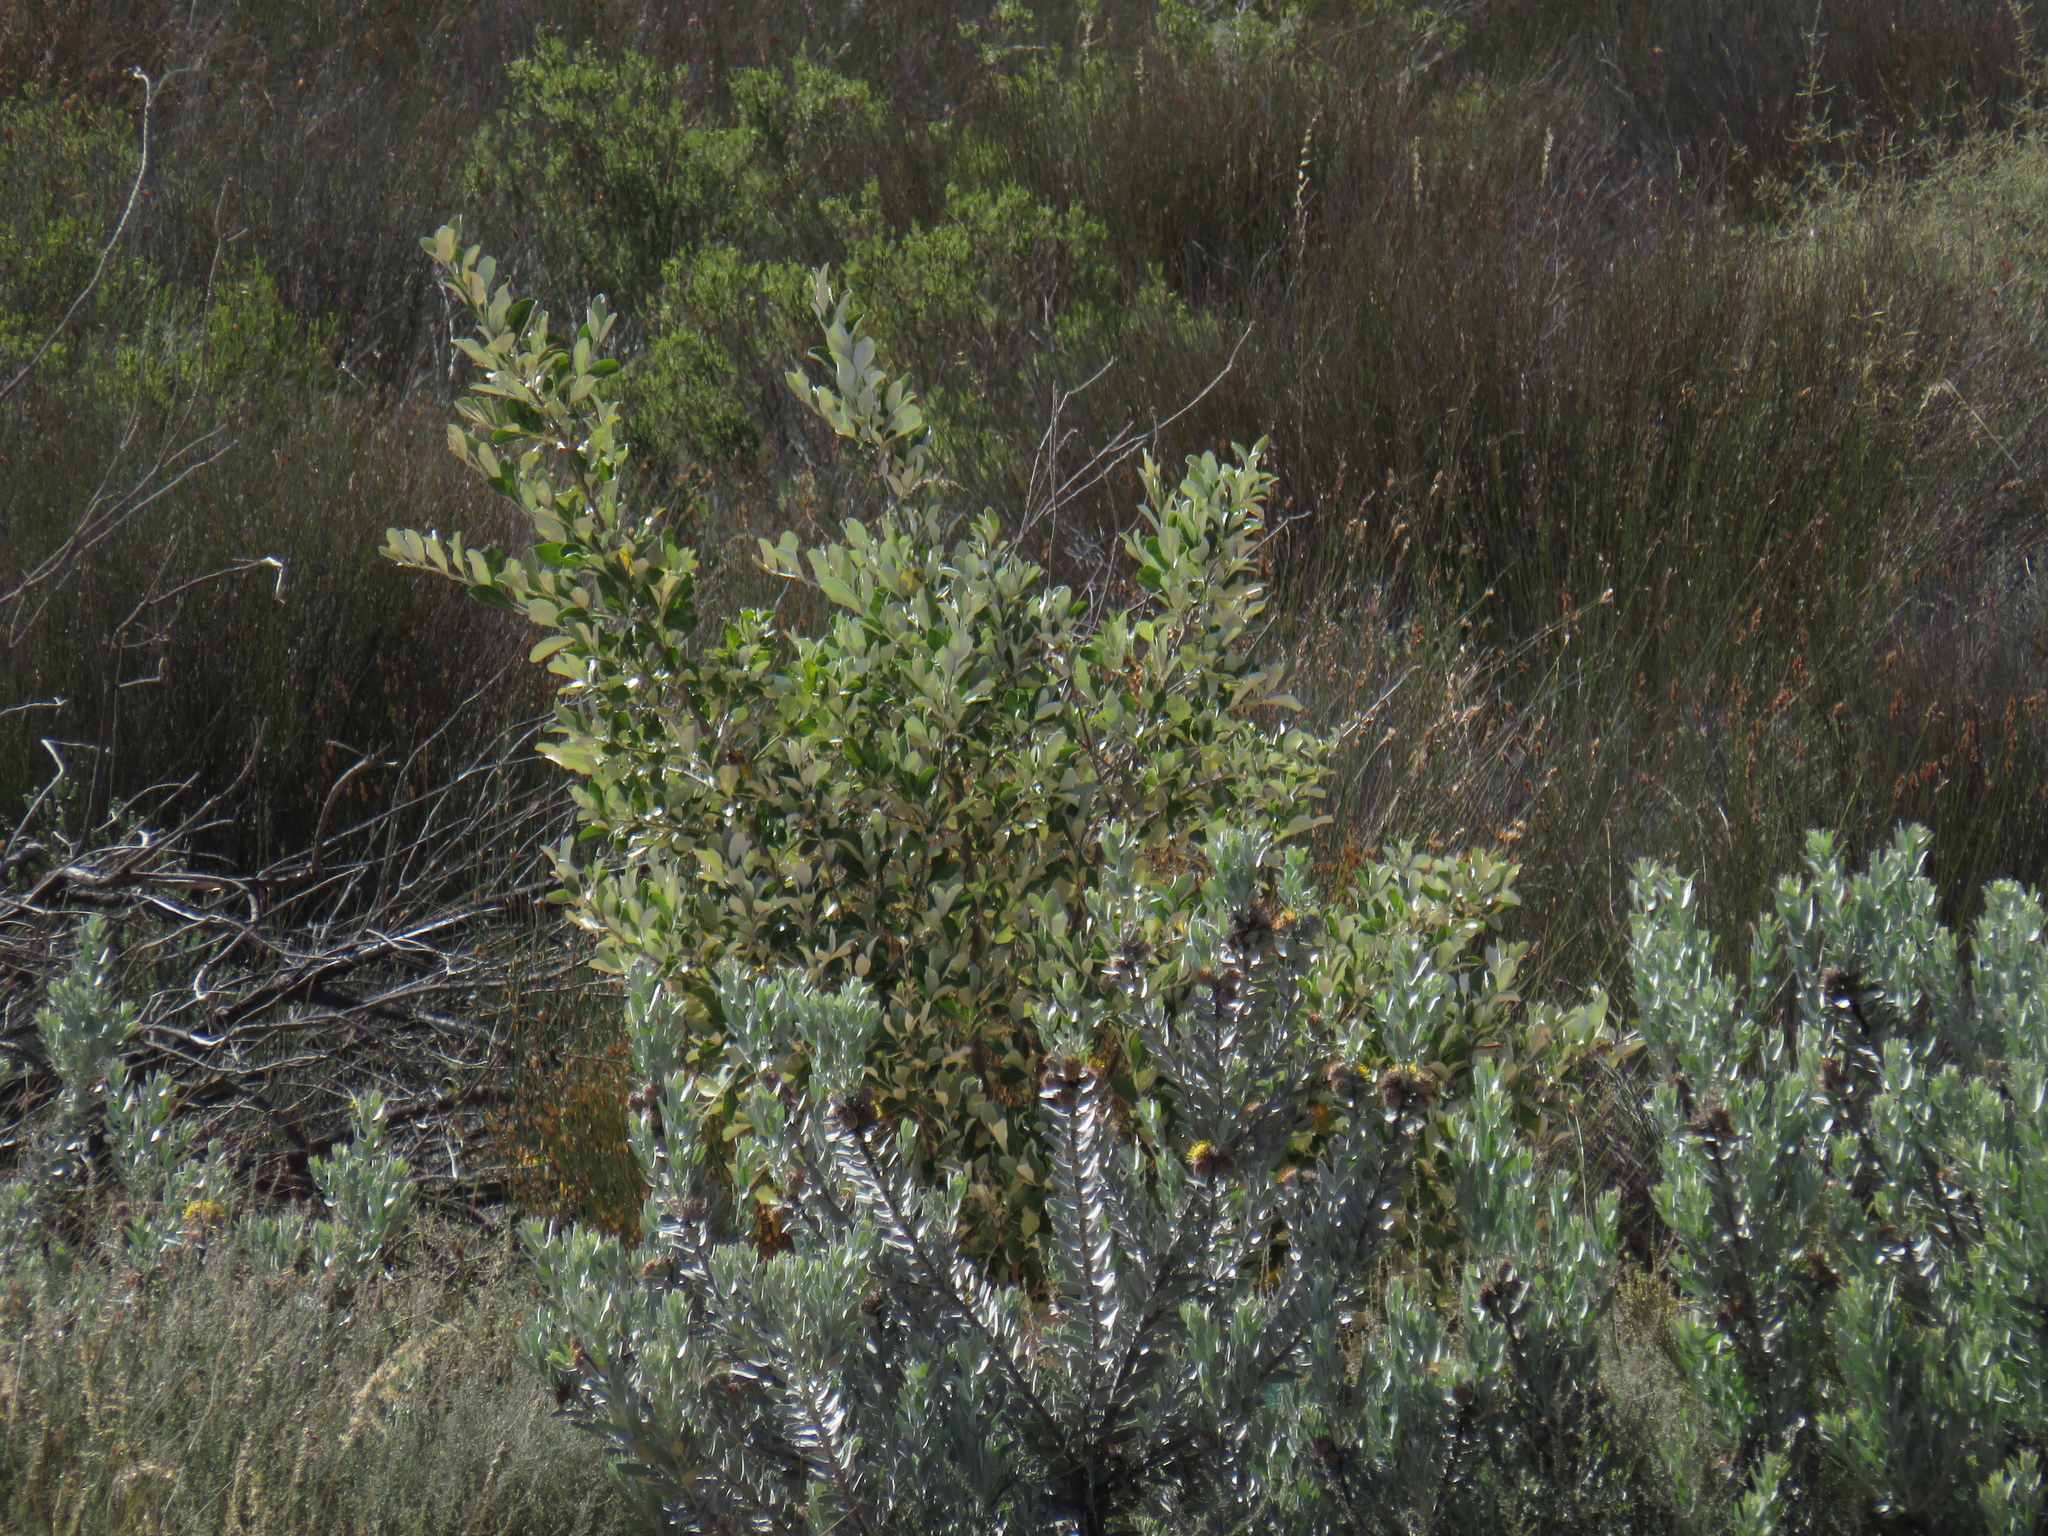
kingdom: Plantae
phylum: Tracheophyta
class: Magnoliopsida
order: Proteales
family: Proteaceae
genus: Leucospermum
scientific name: Leucospermum rodolentum
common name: Pincushion
